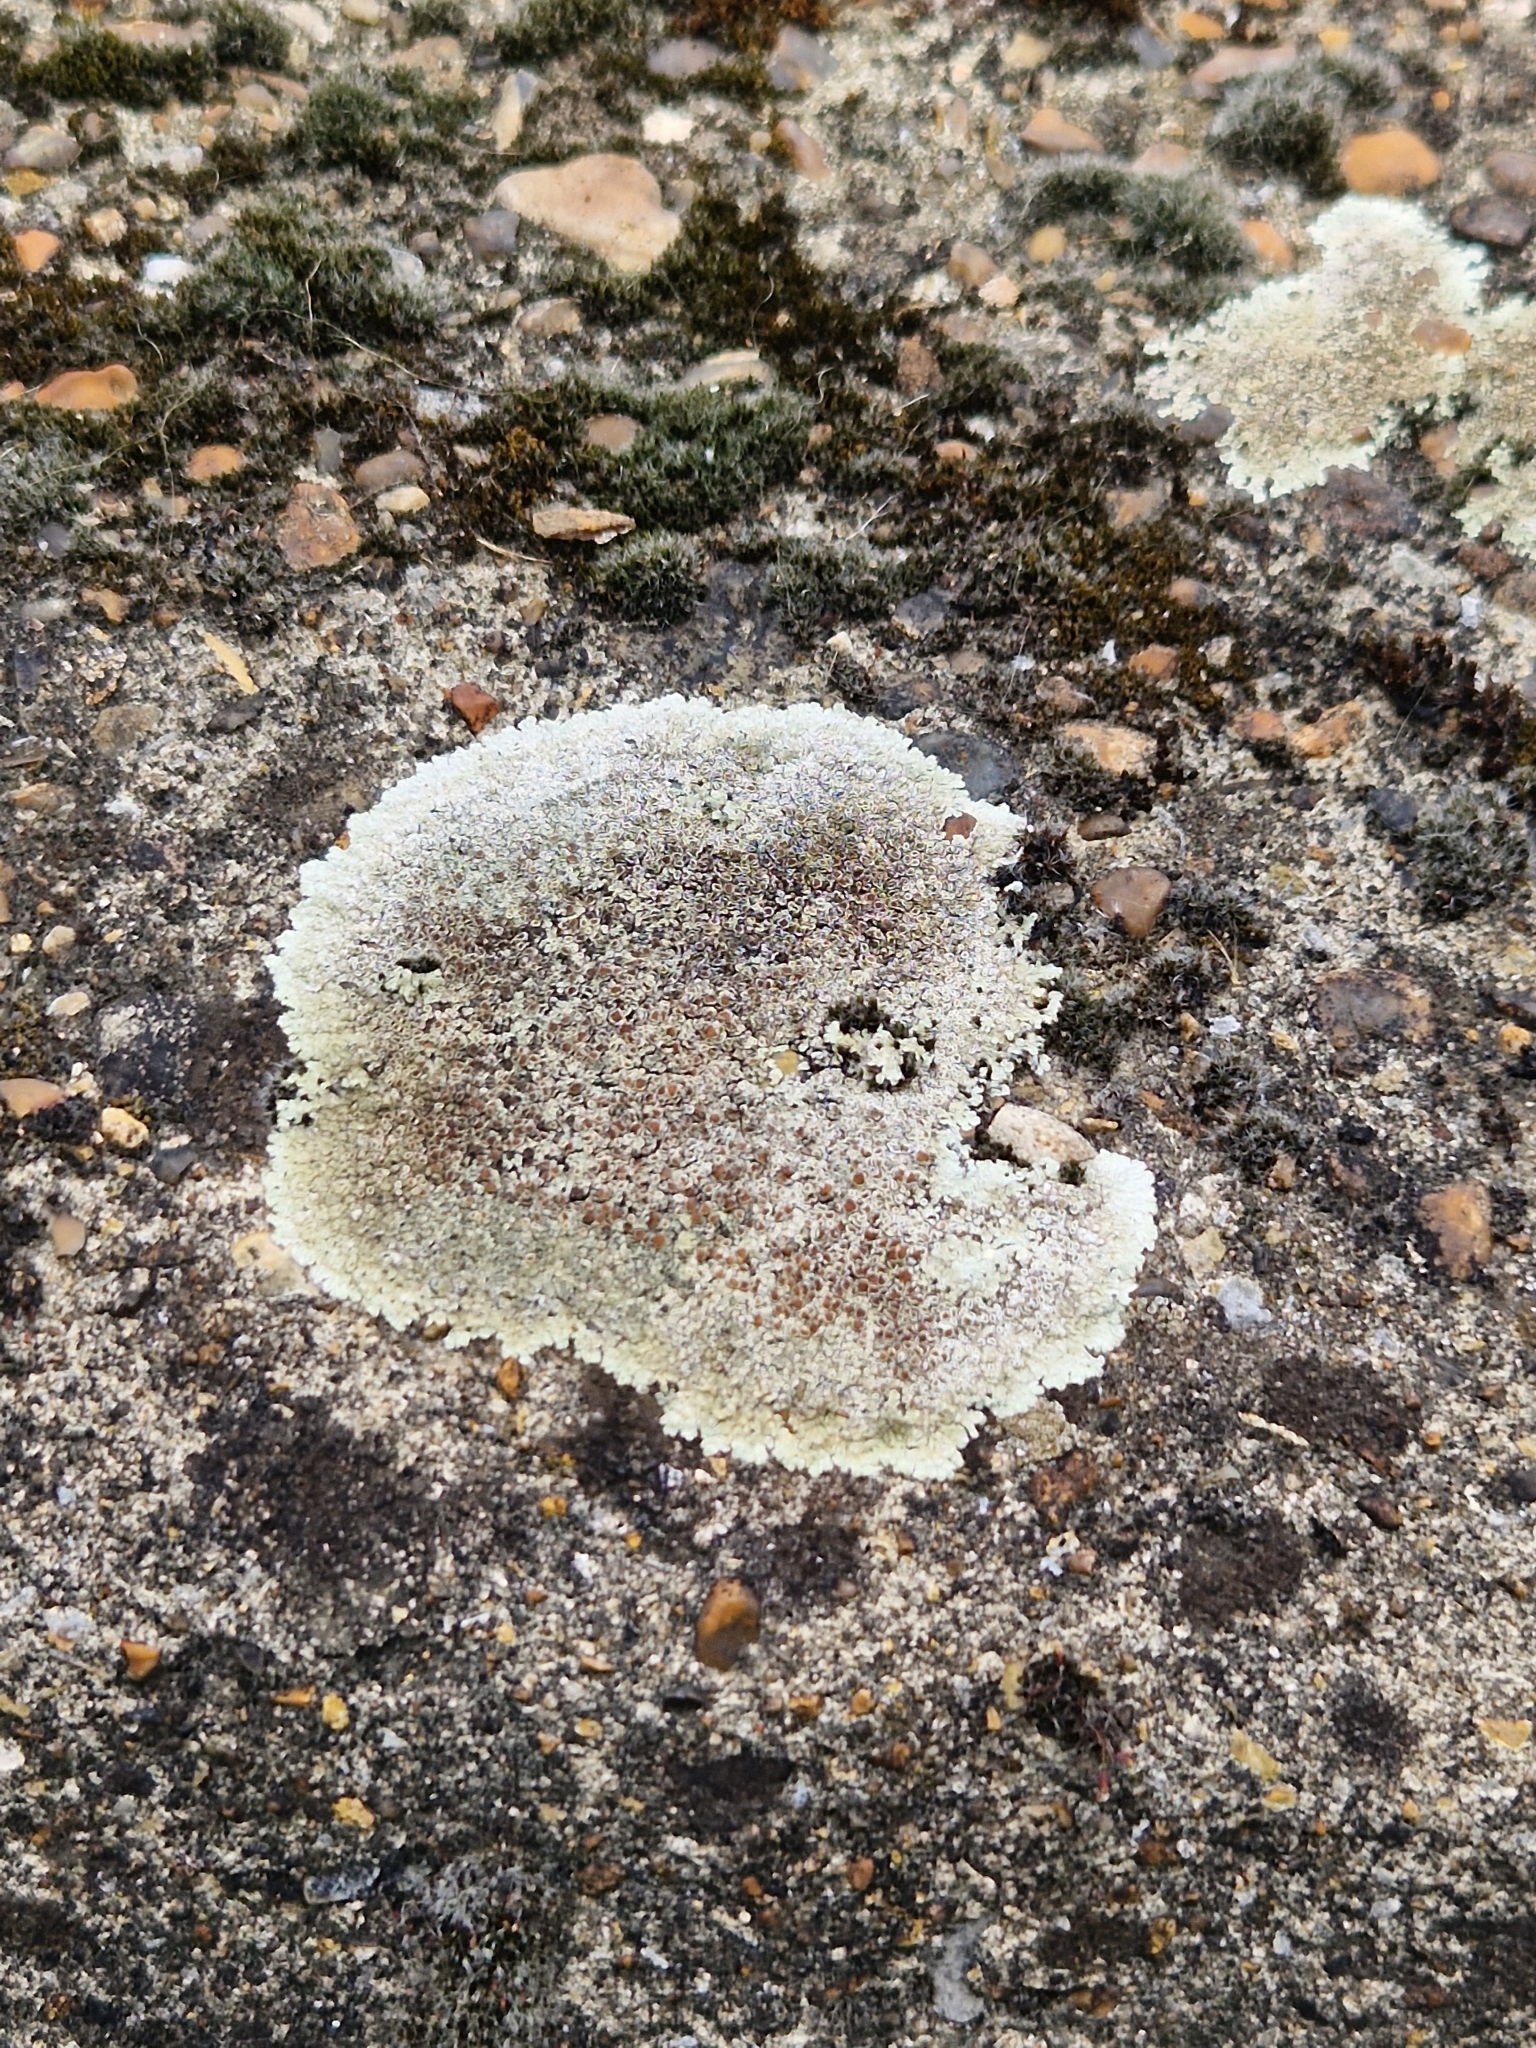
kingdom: Fungi
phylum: Ascomycota
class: Lecanoromycetes
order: Lecanorales
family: Lecanoraceae
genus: Protoparmeliopsis
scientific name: Protoparmeliopsis muralis
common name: Stonewall rim lichen
